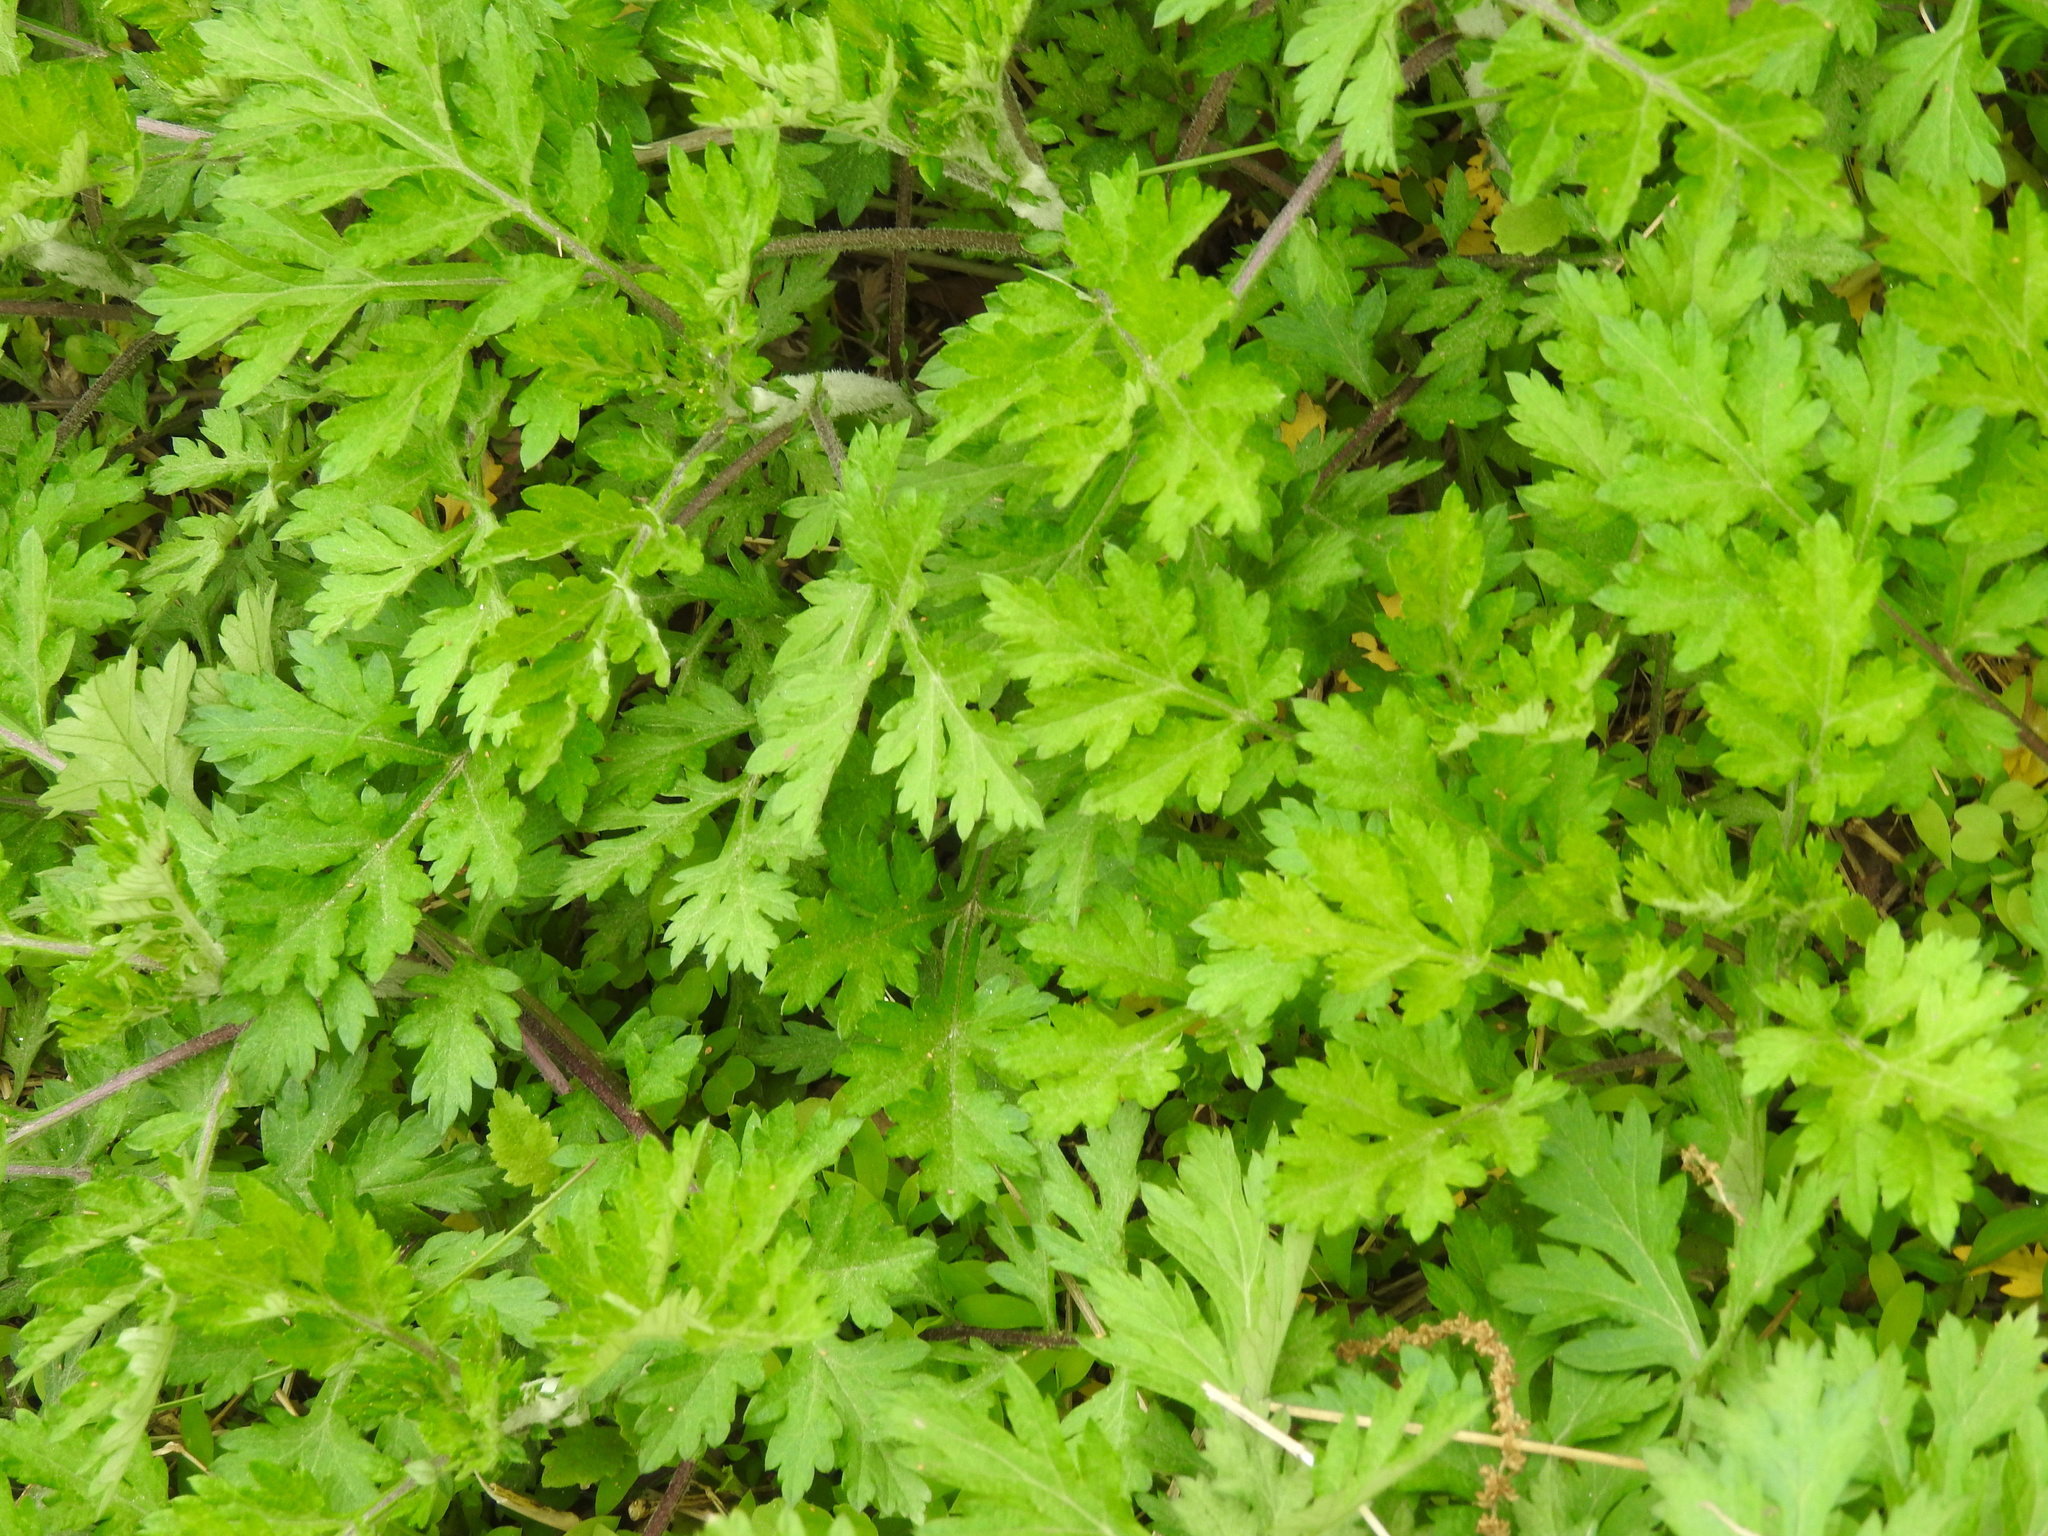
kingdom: Plantae
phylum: Tracheophyta
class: Magnoliopsida
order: Asterales
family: Asteraceae
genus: Artemisia
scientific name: Artemisia vulgaris
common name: Mugwort
